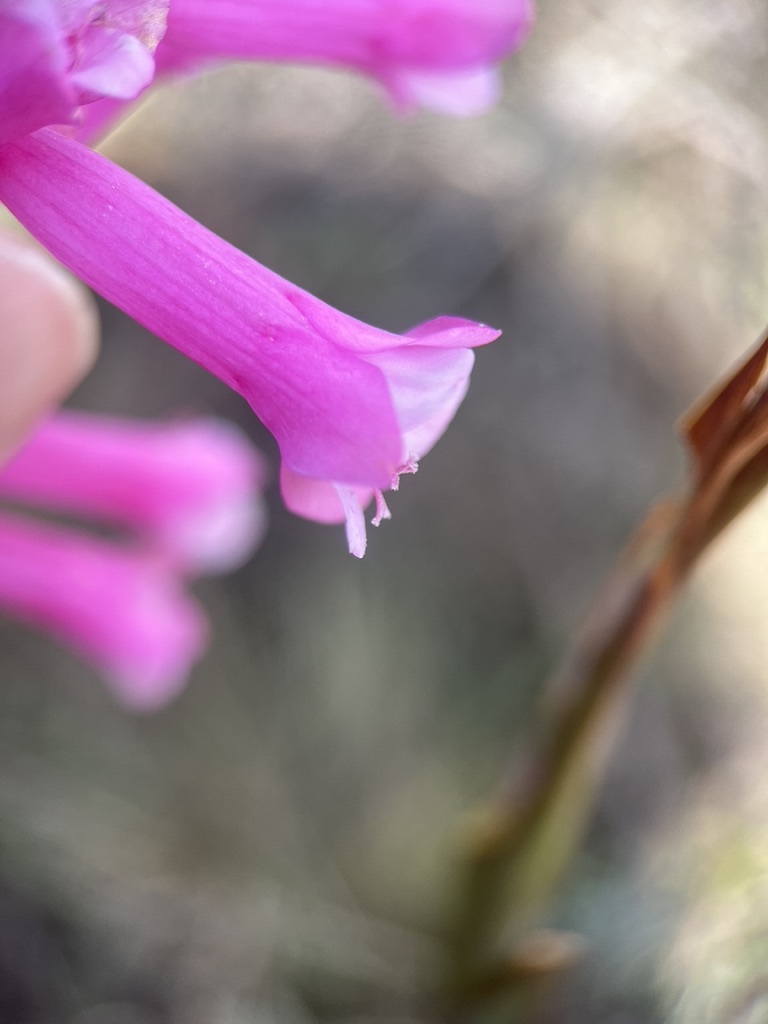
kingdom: Plantae
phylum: Tracheophyta
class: Liliopsida
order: Asparagales
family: Iridaceae
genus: Watsonia
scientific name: Watsonia aletroides
